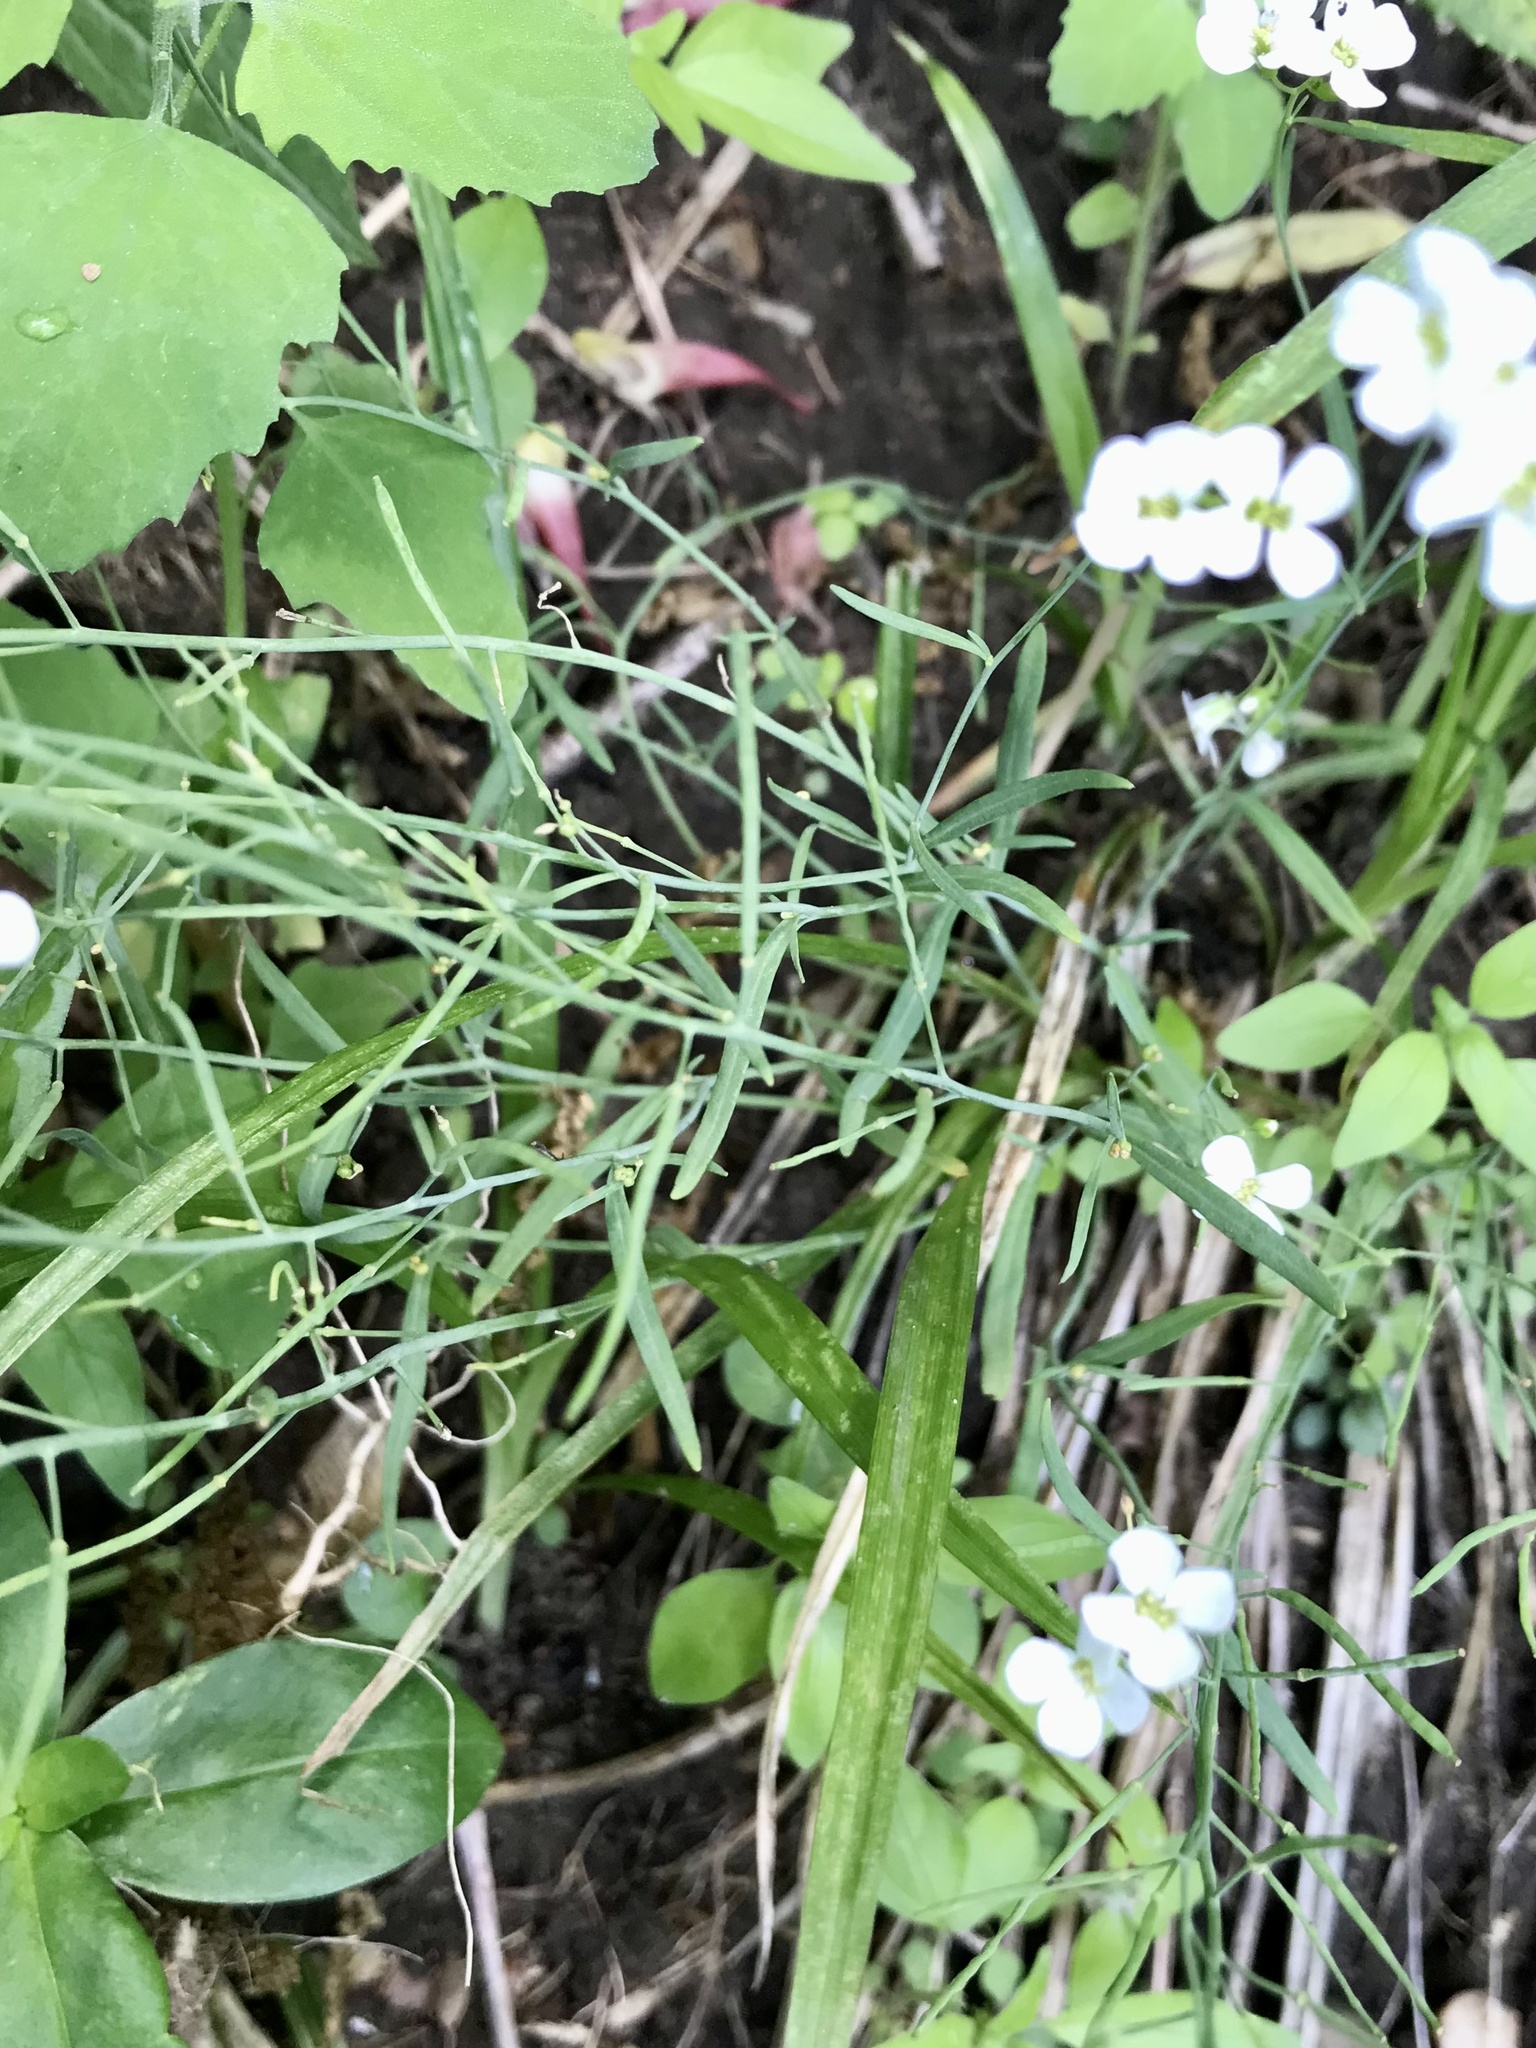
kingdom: Plantae
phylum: Tracheophyta
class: Magnoliopsida
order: Brassicales
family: Brassicaceae
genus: Arabidopsis
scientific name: Arabidopsis lyrata
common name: Lyrate rockcress
